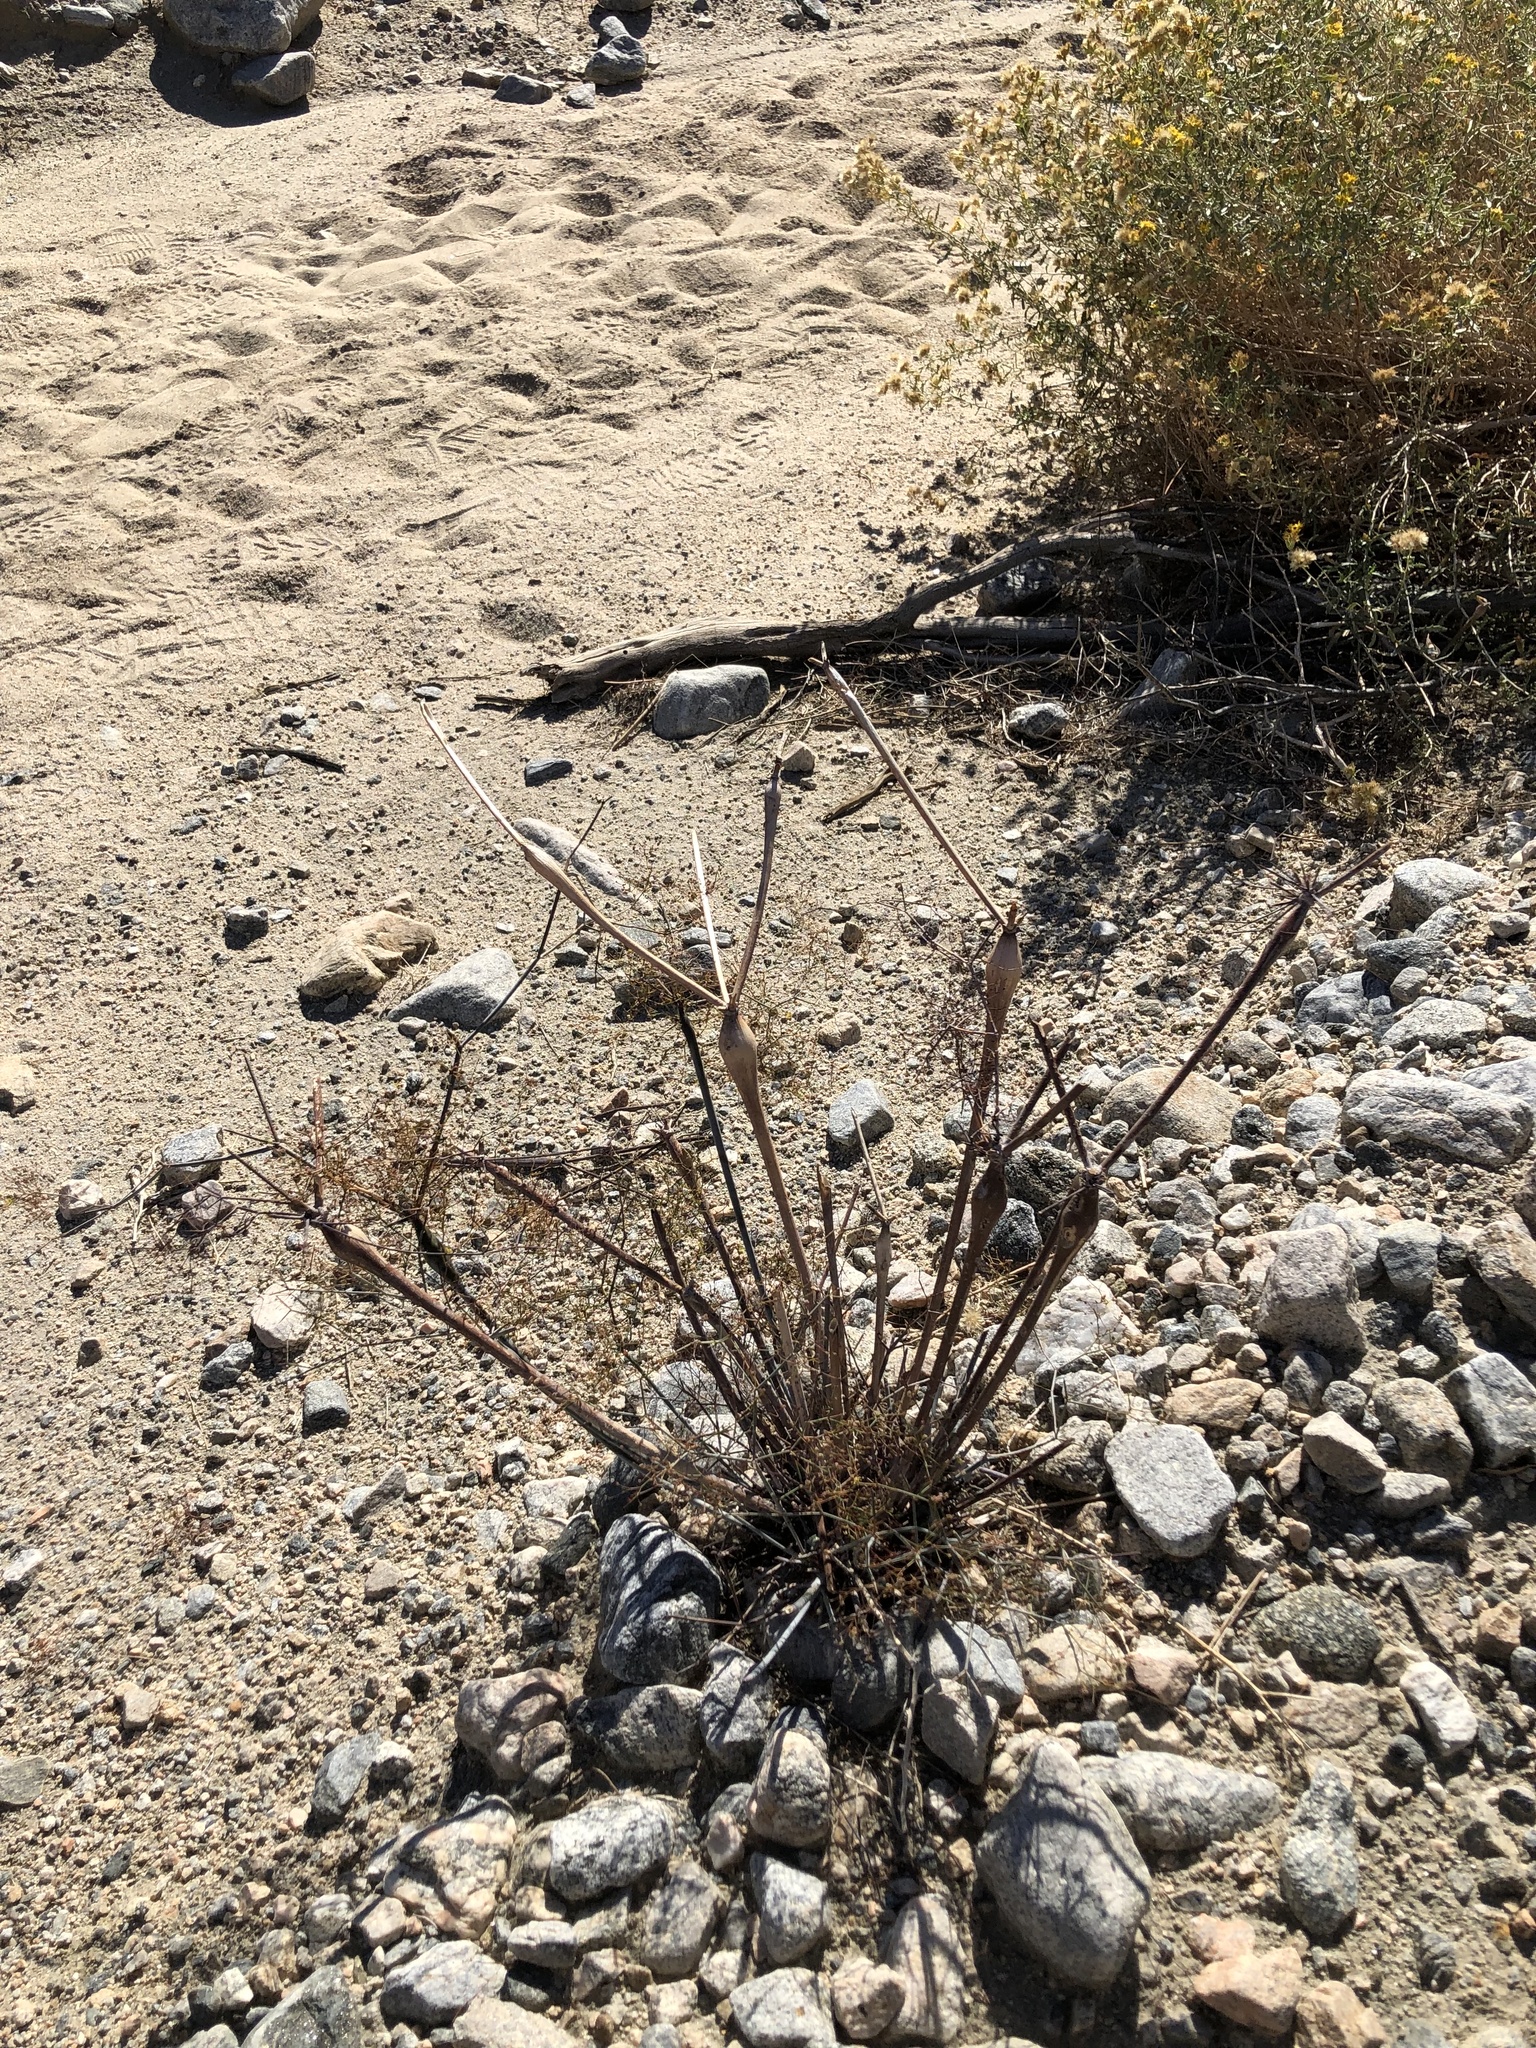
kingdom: Plantae
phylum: Tracheophyta
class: Magnoliopsida
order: Caryophyllales
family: Polygonaceae
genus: Eriogonum
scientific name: Eriogonum inflatum
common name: Desert trumpet
